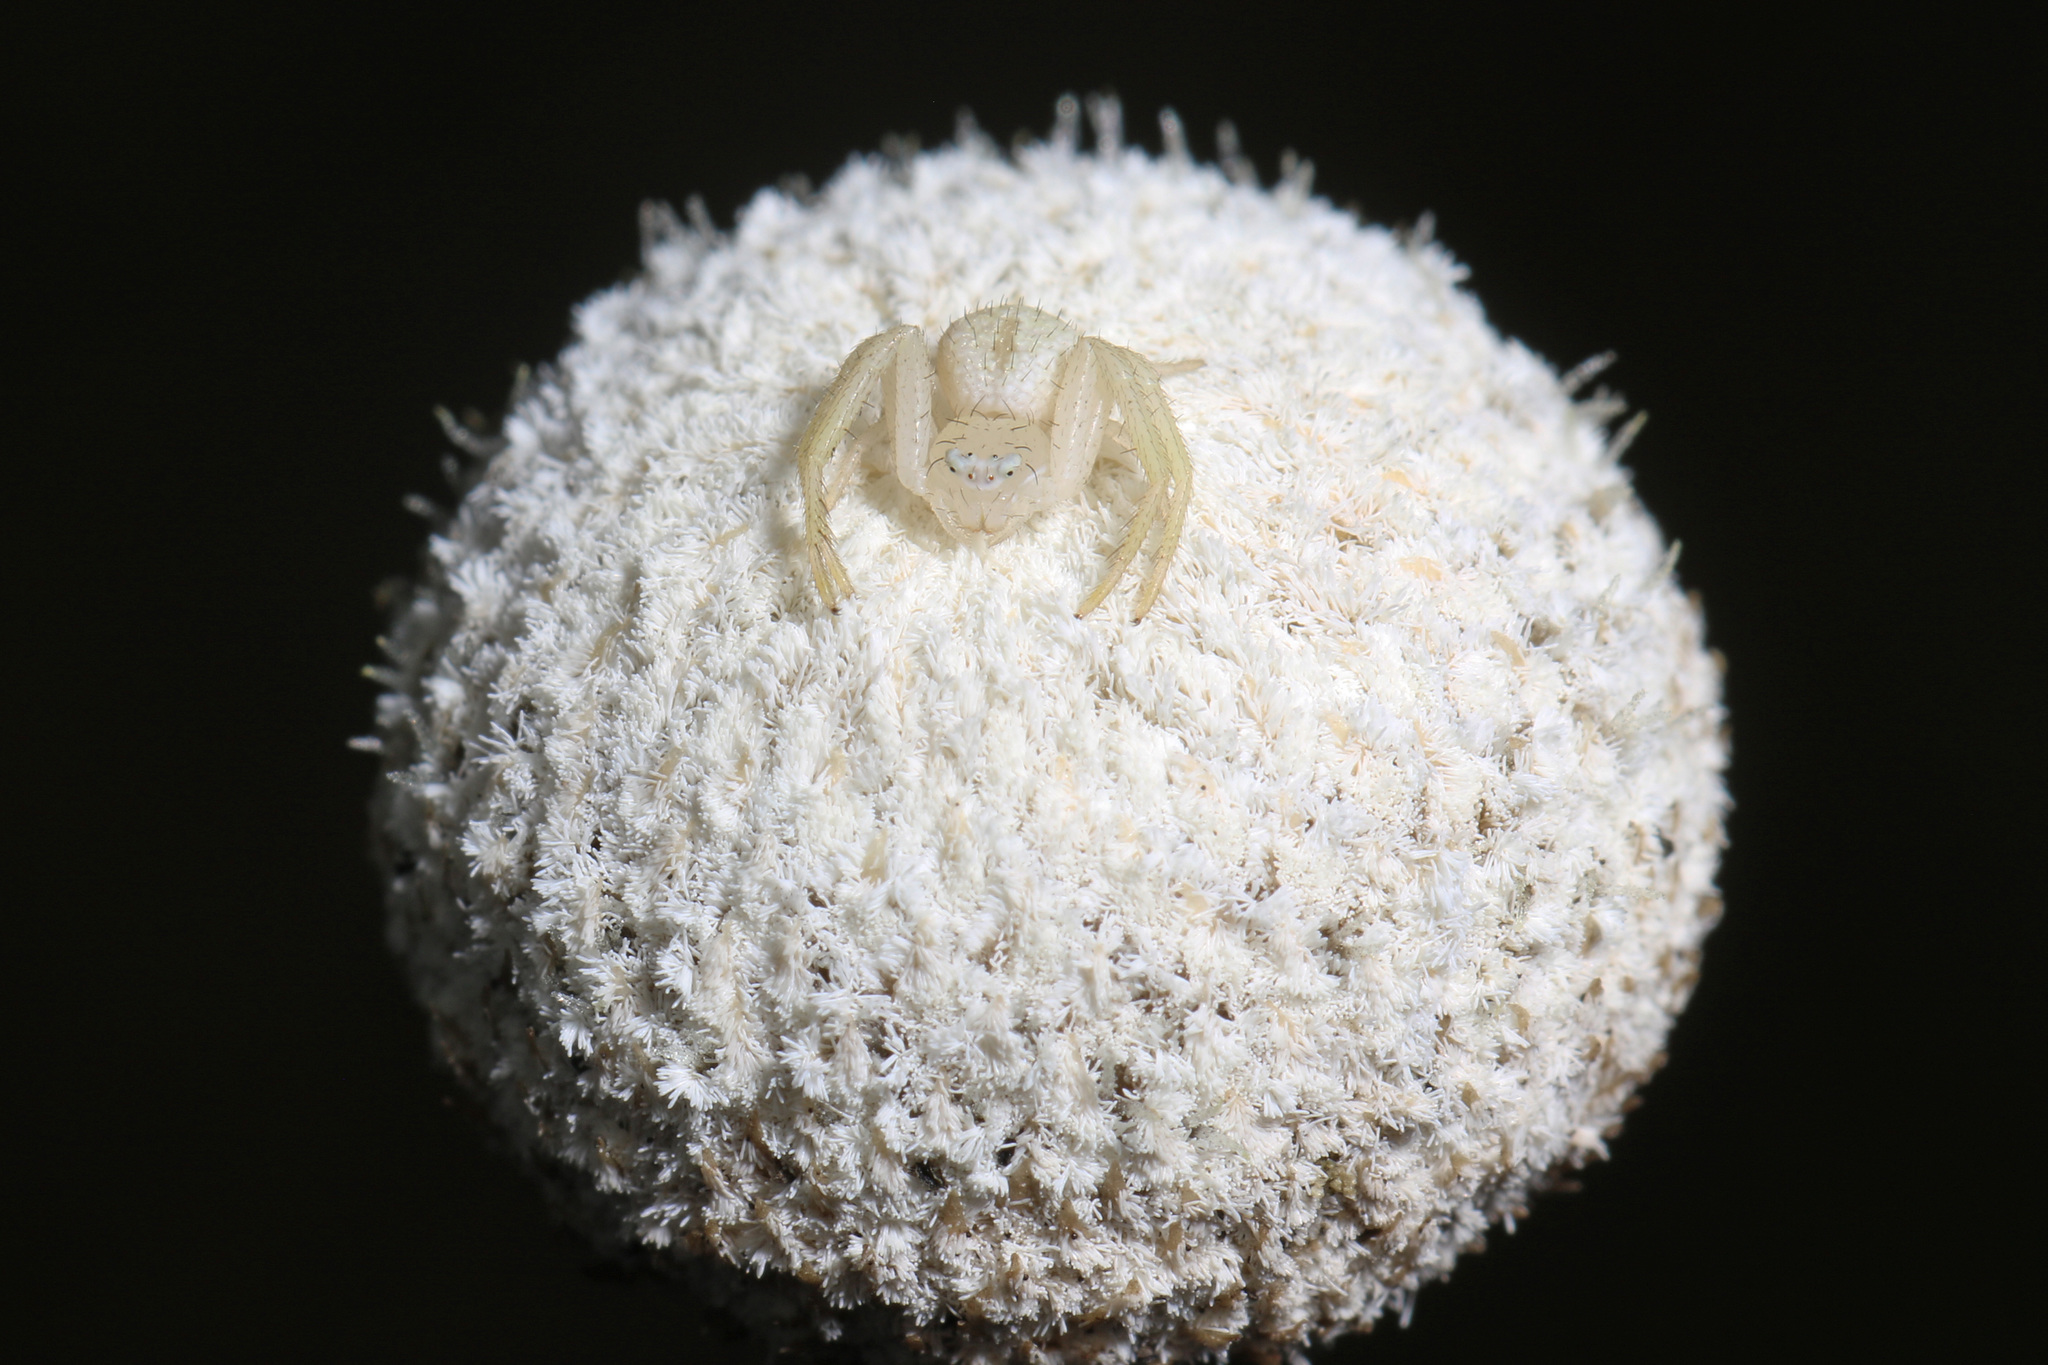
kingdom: Plantae
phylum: Tracheophyta
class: Liliopsida
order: Poales
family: Eriocaulaceae
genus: Eriocaulon
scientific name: Eriocaulon decangulare
